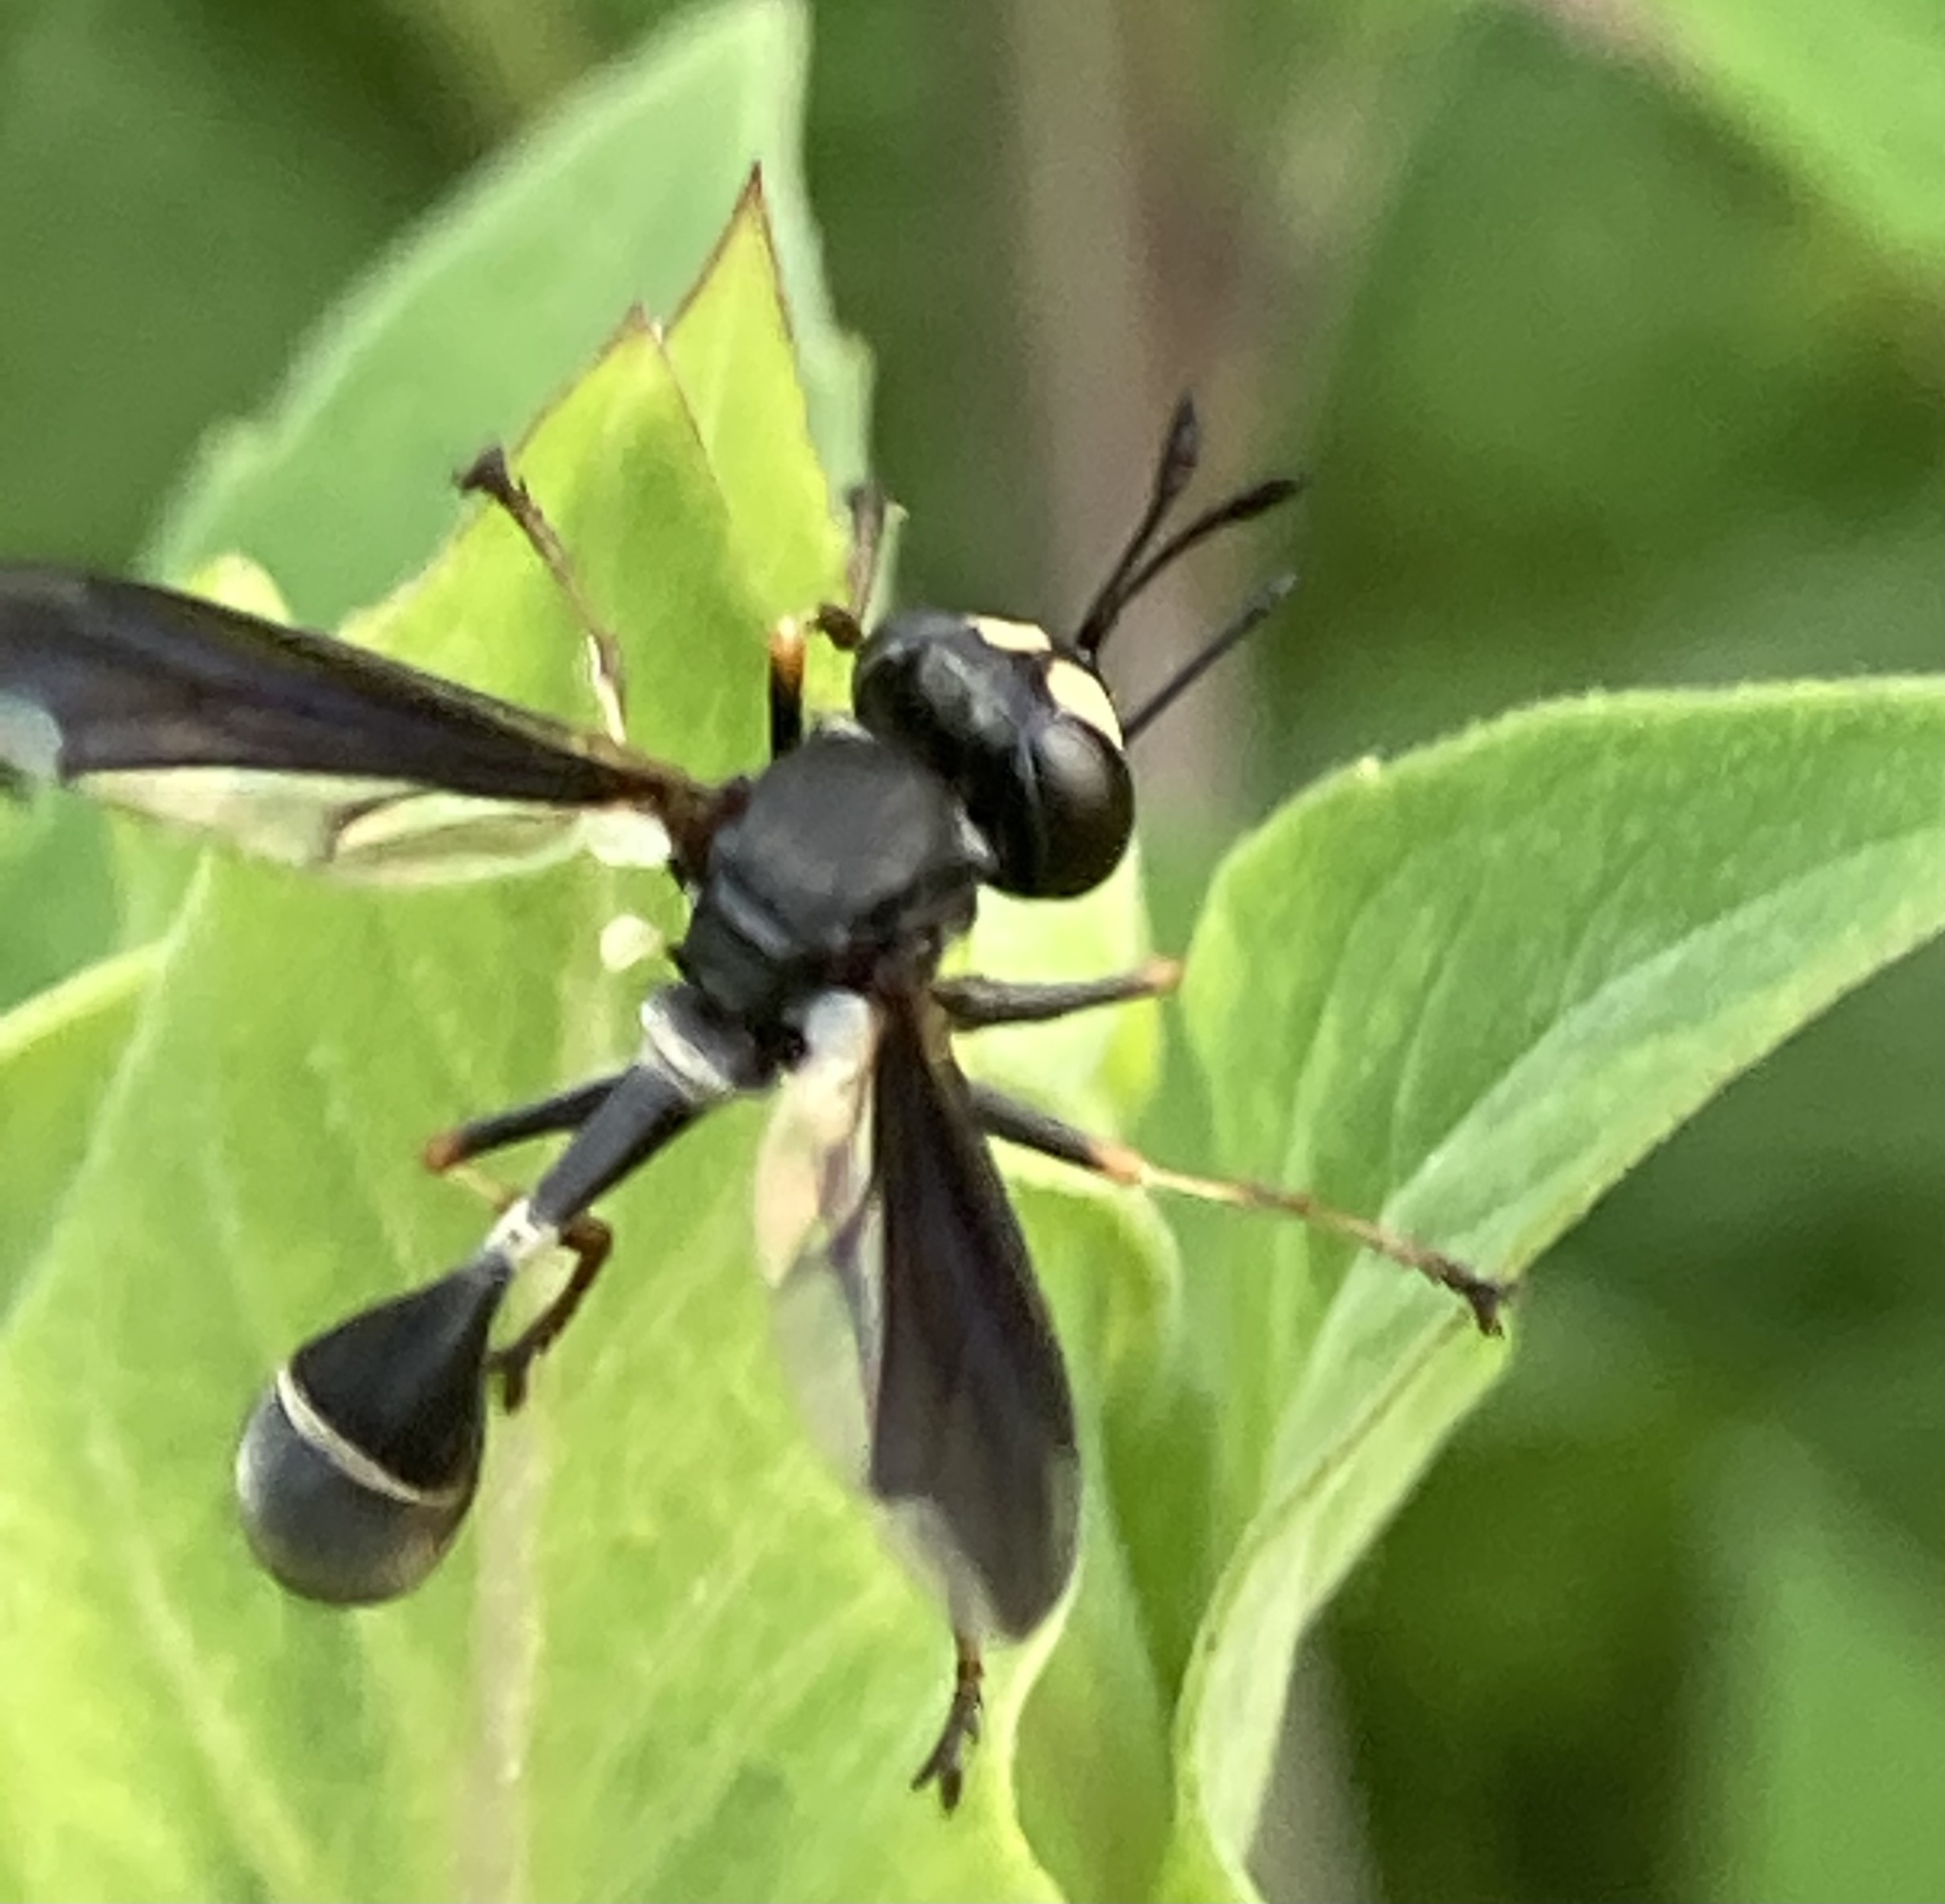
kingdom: Animalia
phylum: Arthropoda
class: Insecta
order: Diptera
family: Conopidae
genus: Physocephala
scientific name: Physocephala tibialis
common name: Common eastern physocephala
